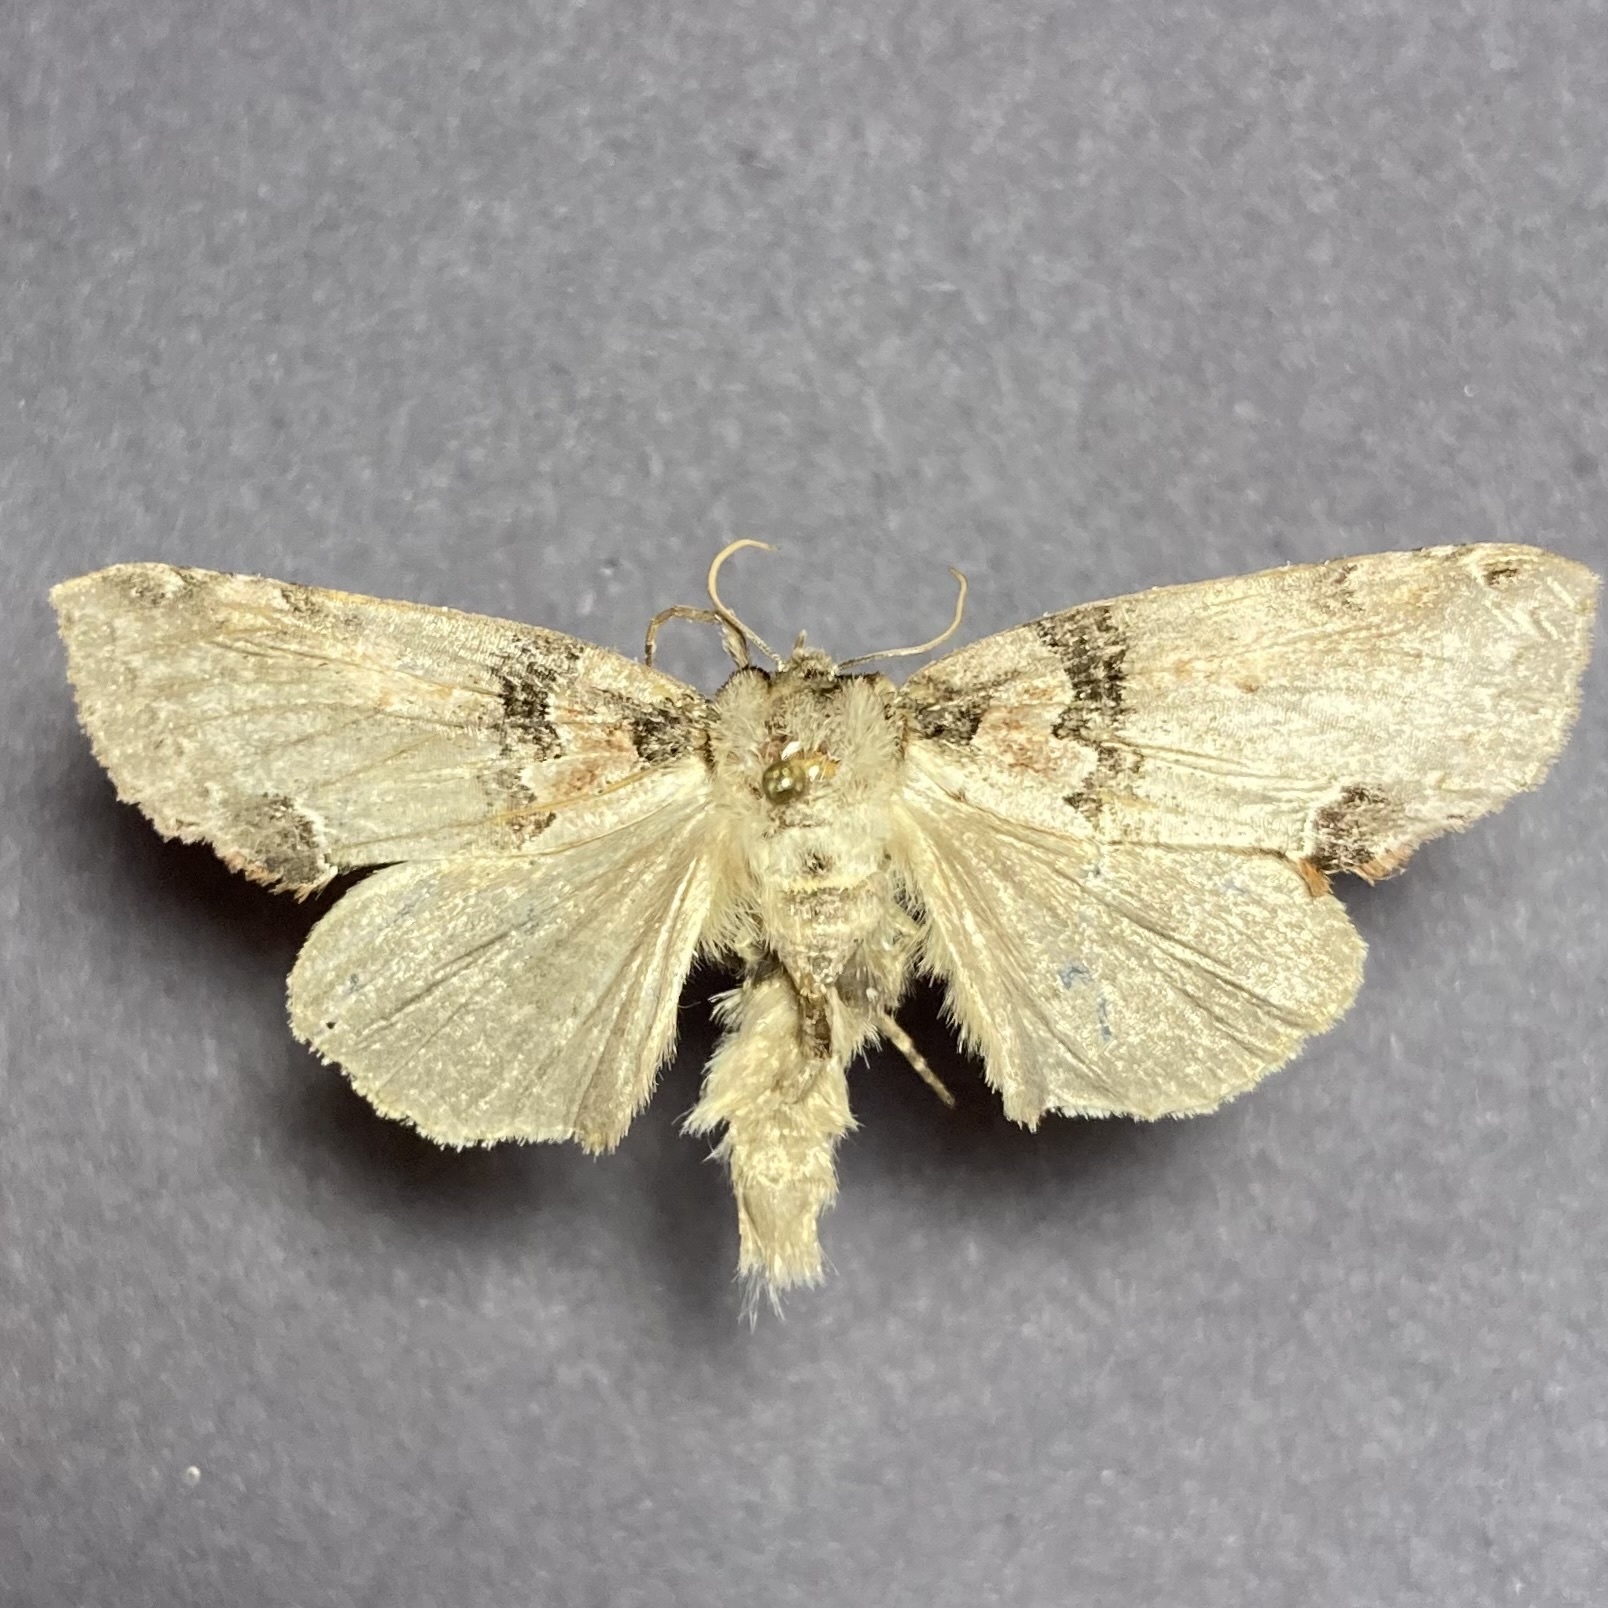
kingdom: Animalia
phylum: Arthropoda
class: Insecta
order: Lepidoptera
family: Drepanidae
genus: Pseudothyatira
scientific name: Pseudothyatira cymatophoroides
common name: Tufted thyatirid moth
